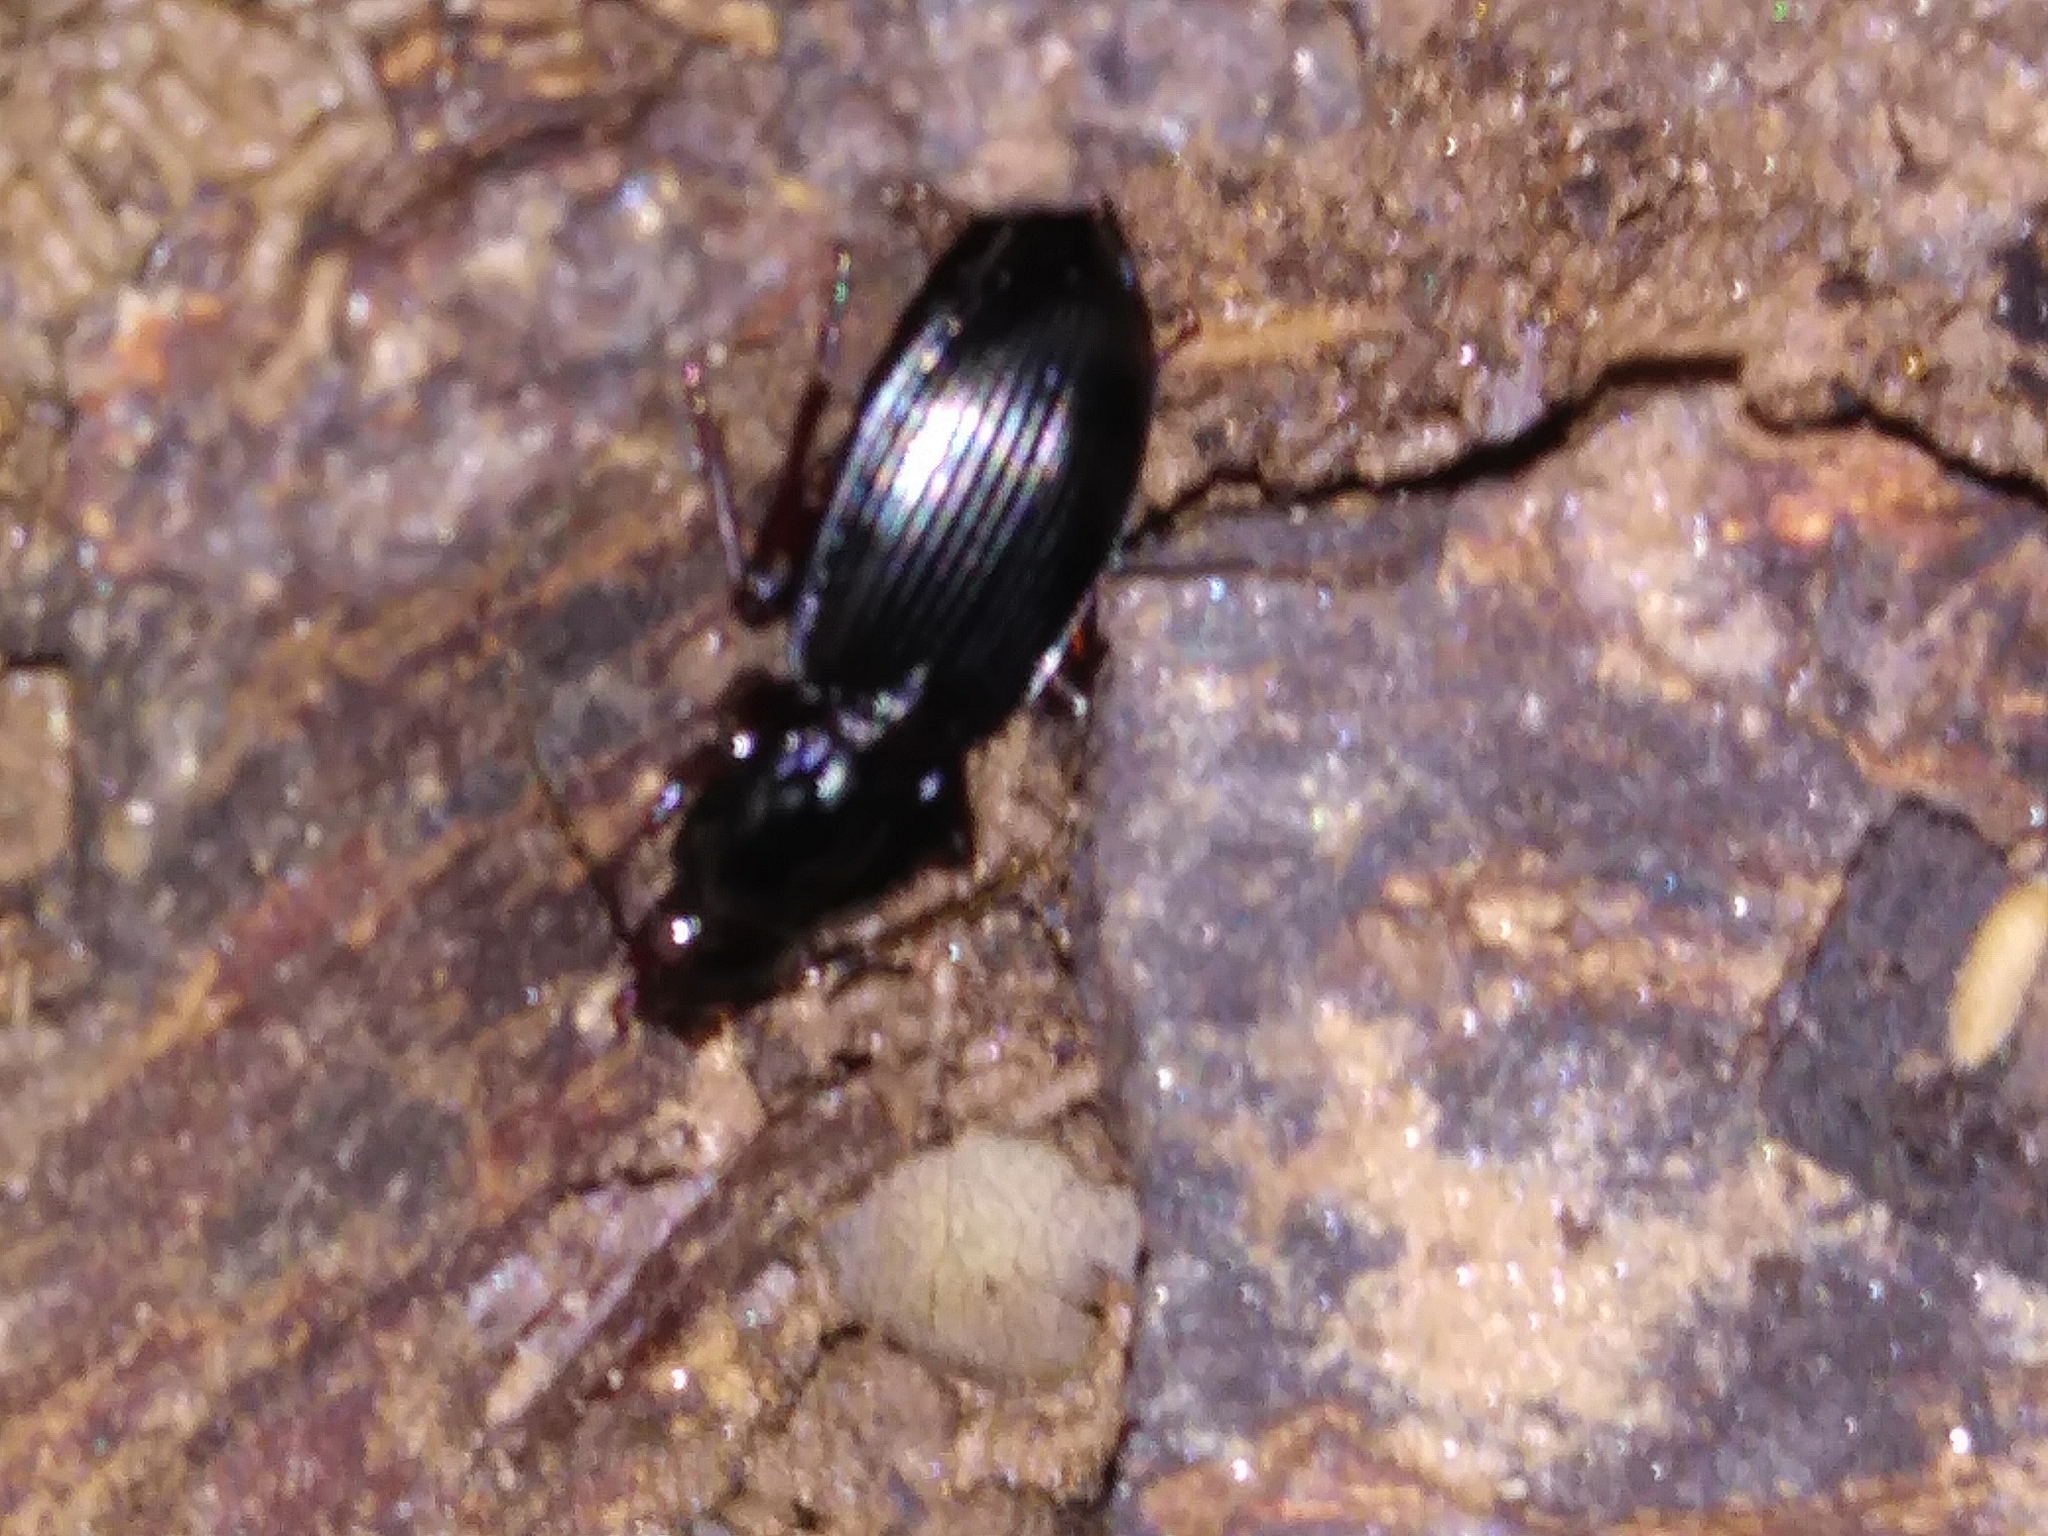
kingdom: Animalia
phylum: Arthropoda
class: Insecta
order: Coleoptera
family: Carabidae
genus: Pterostichus
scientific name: Pterostichus stygicus
